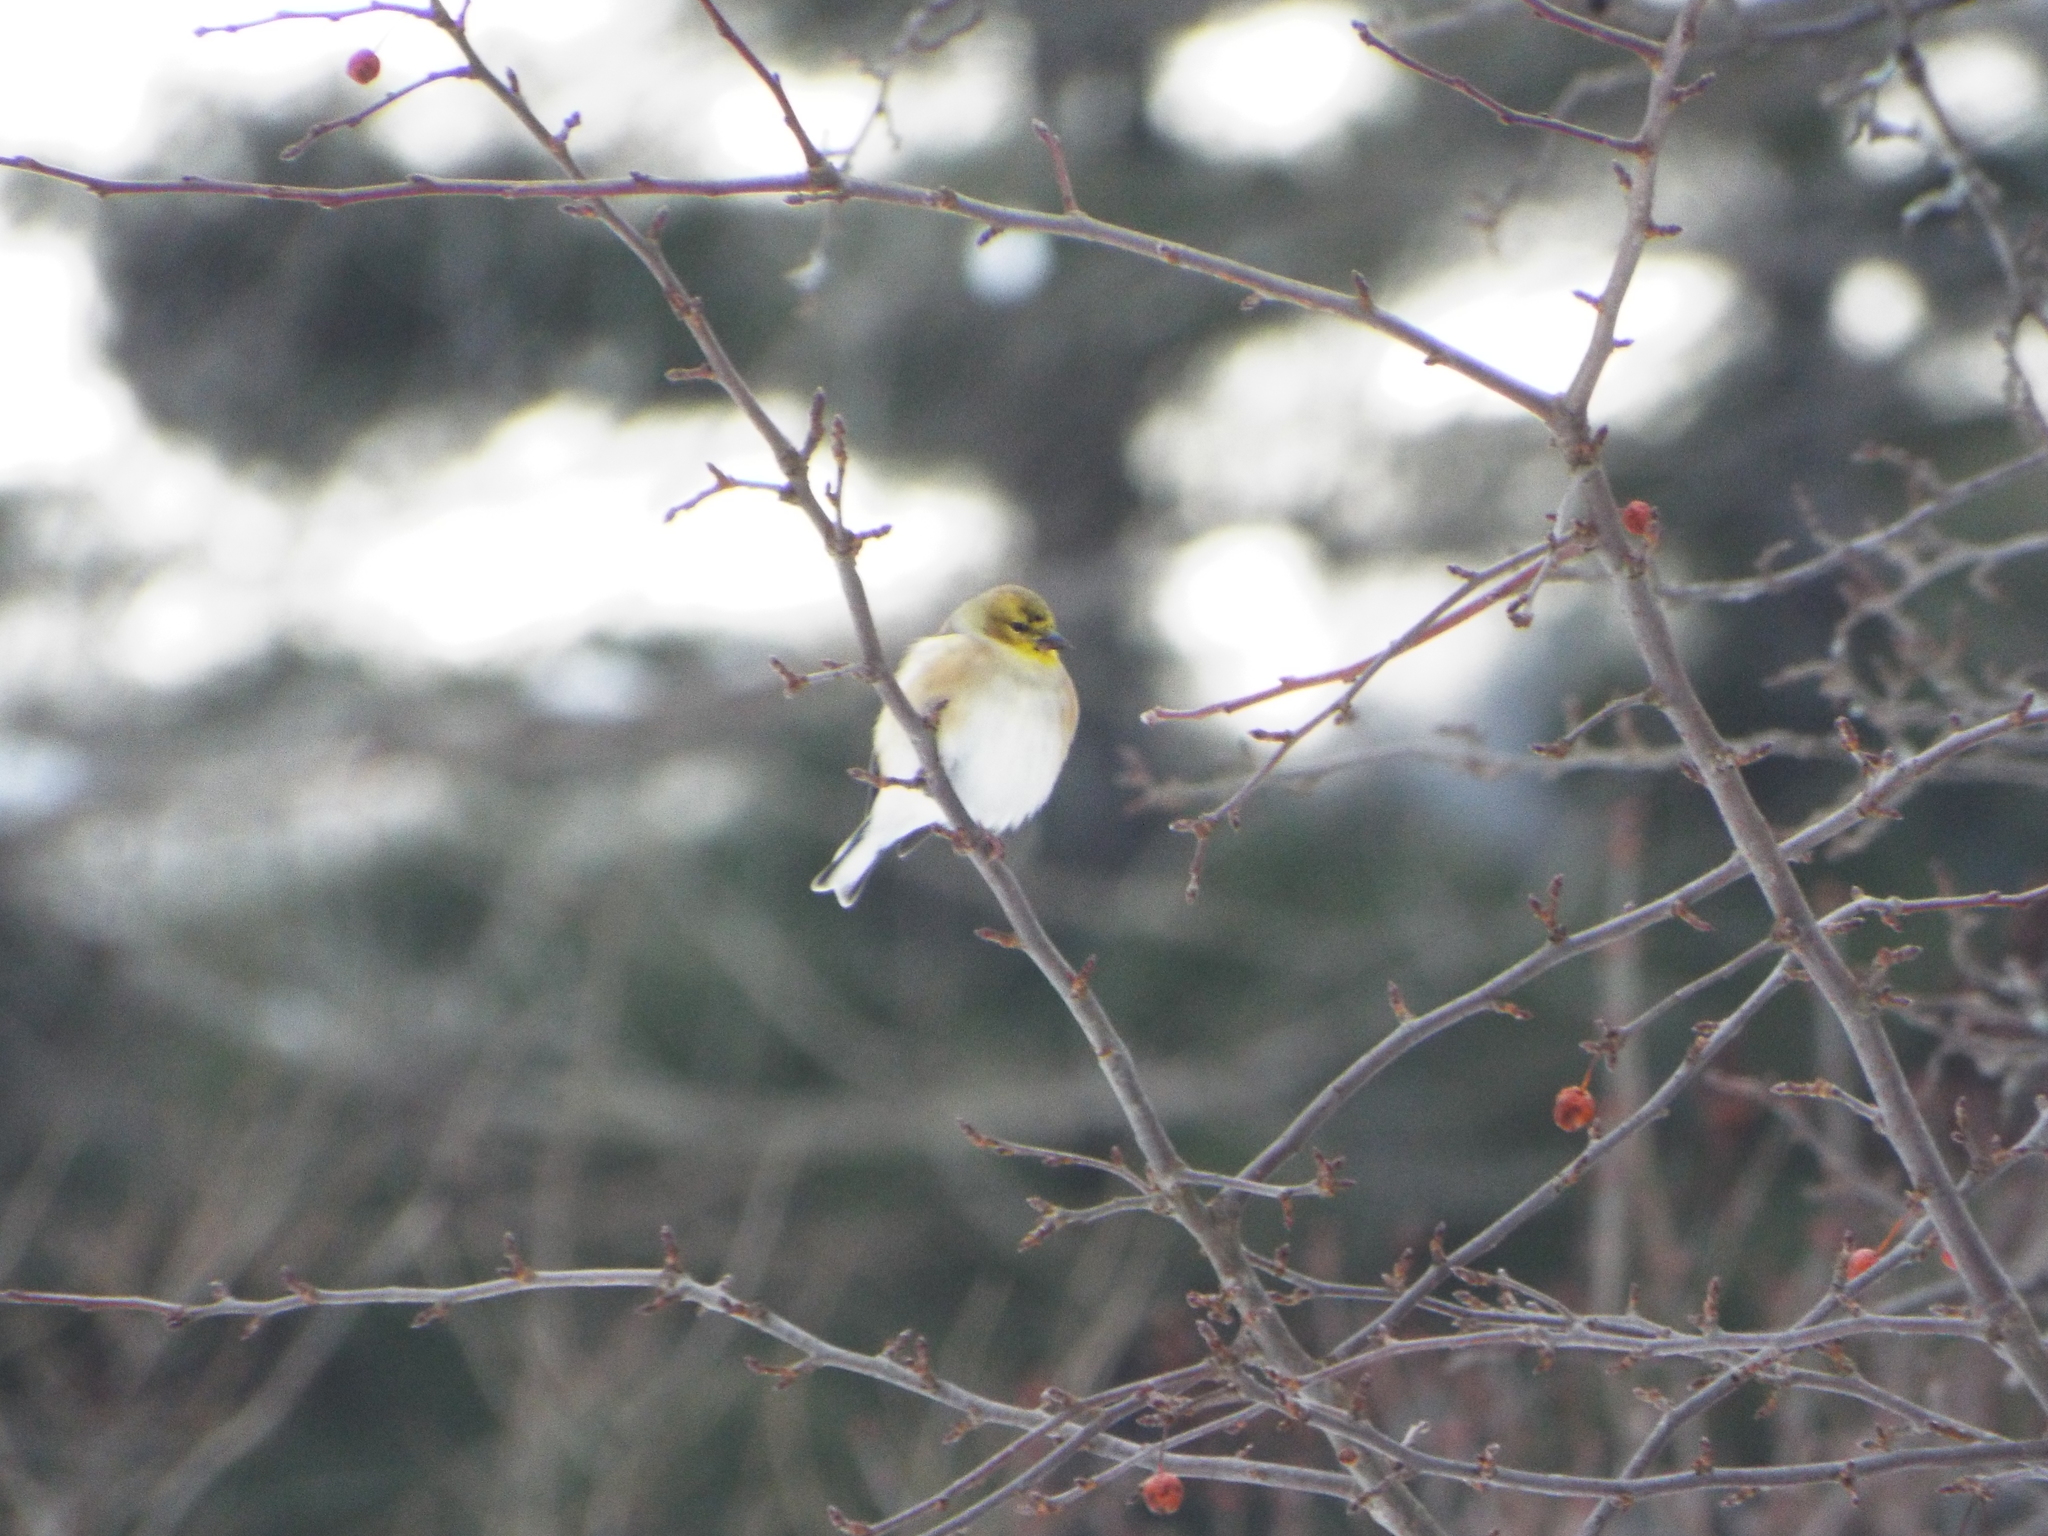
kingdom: Animalia
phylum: Chordata
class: Aves
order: Passeriformes
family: Fringillidae
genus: Spinus
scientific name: Spinus tristis
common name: American goldfinch
